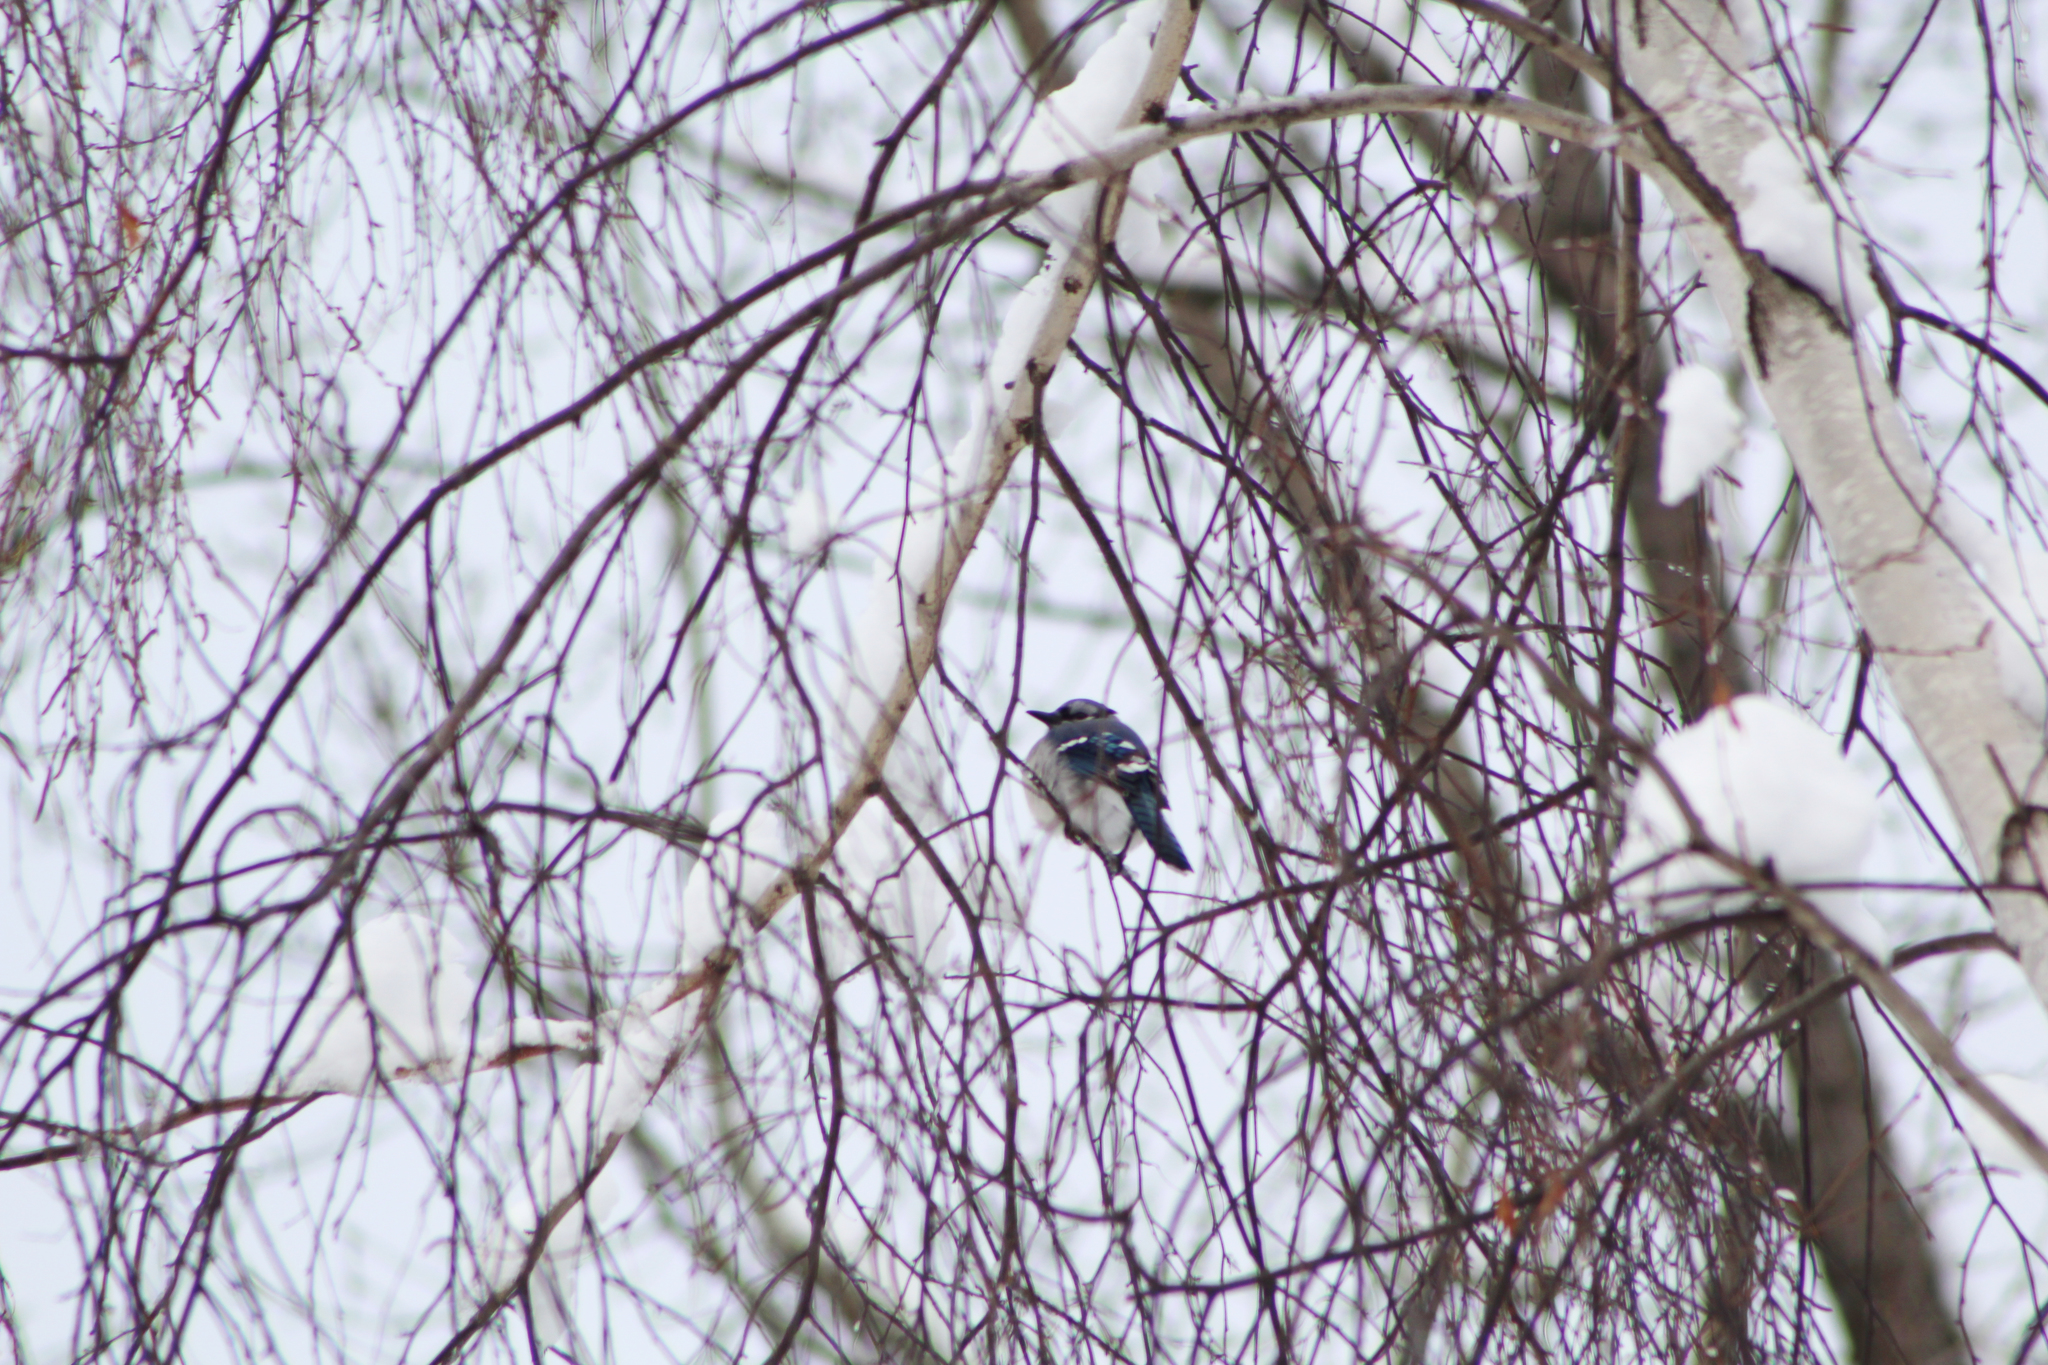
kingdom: Animalia
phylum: Chordata
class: Aves
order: Passeriformes
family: Corvidae
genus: Cyanocitta
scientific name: Cyanocitta cristata
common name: Blue jay
